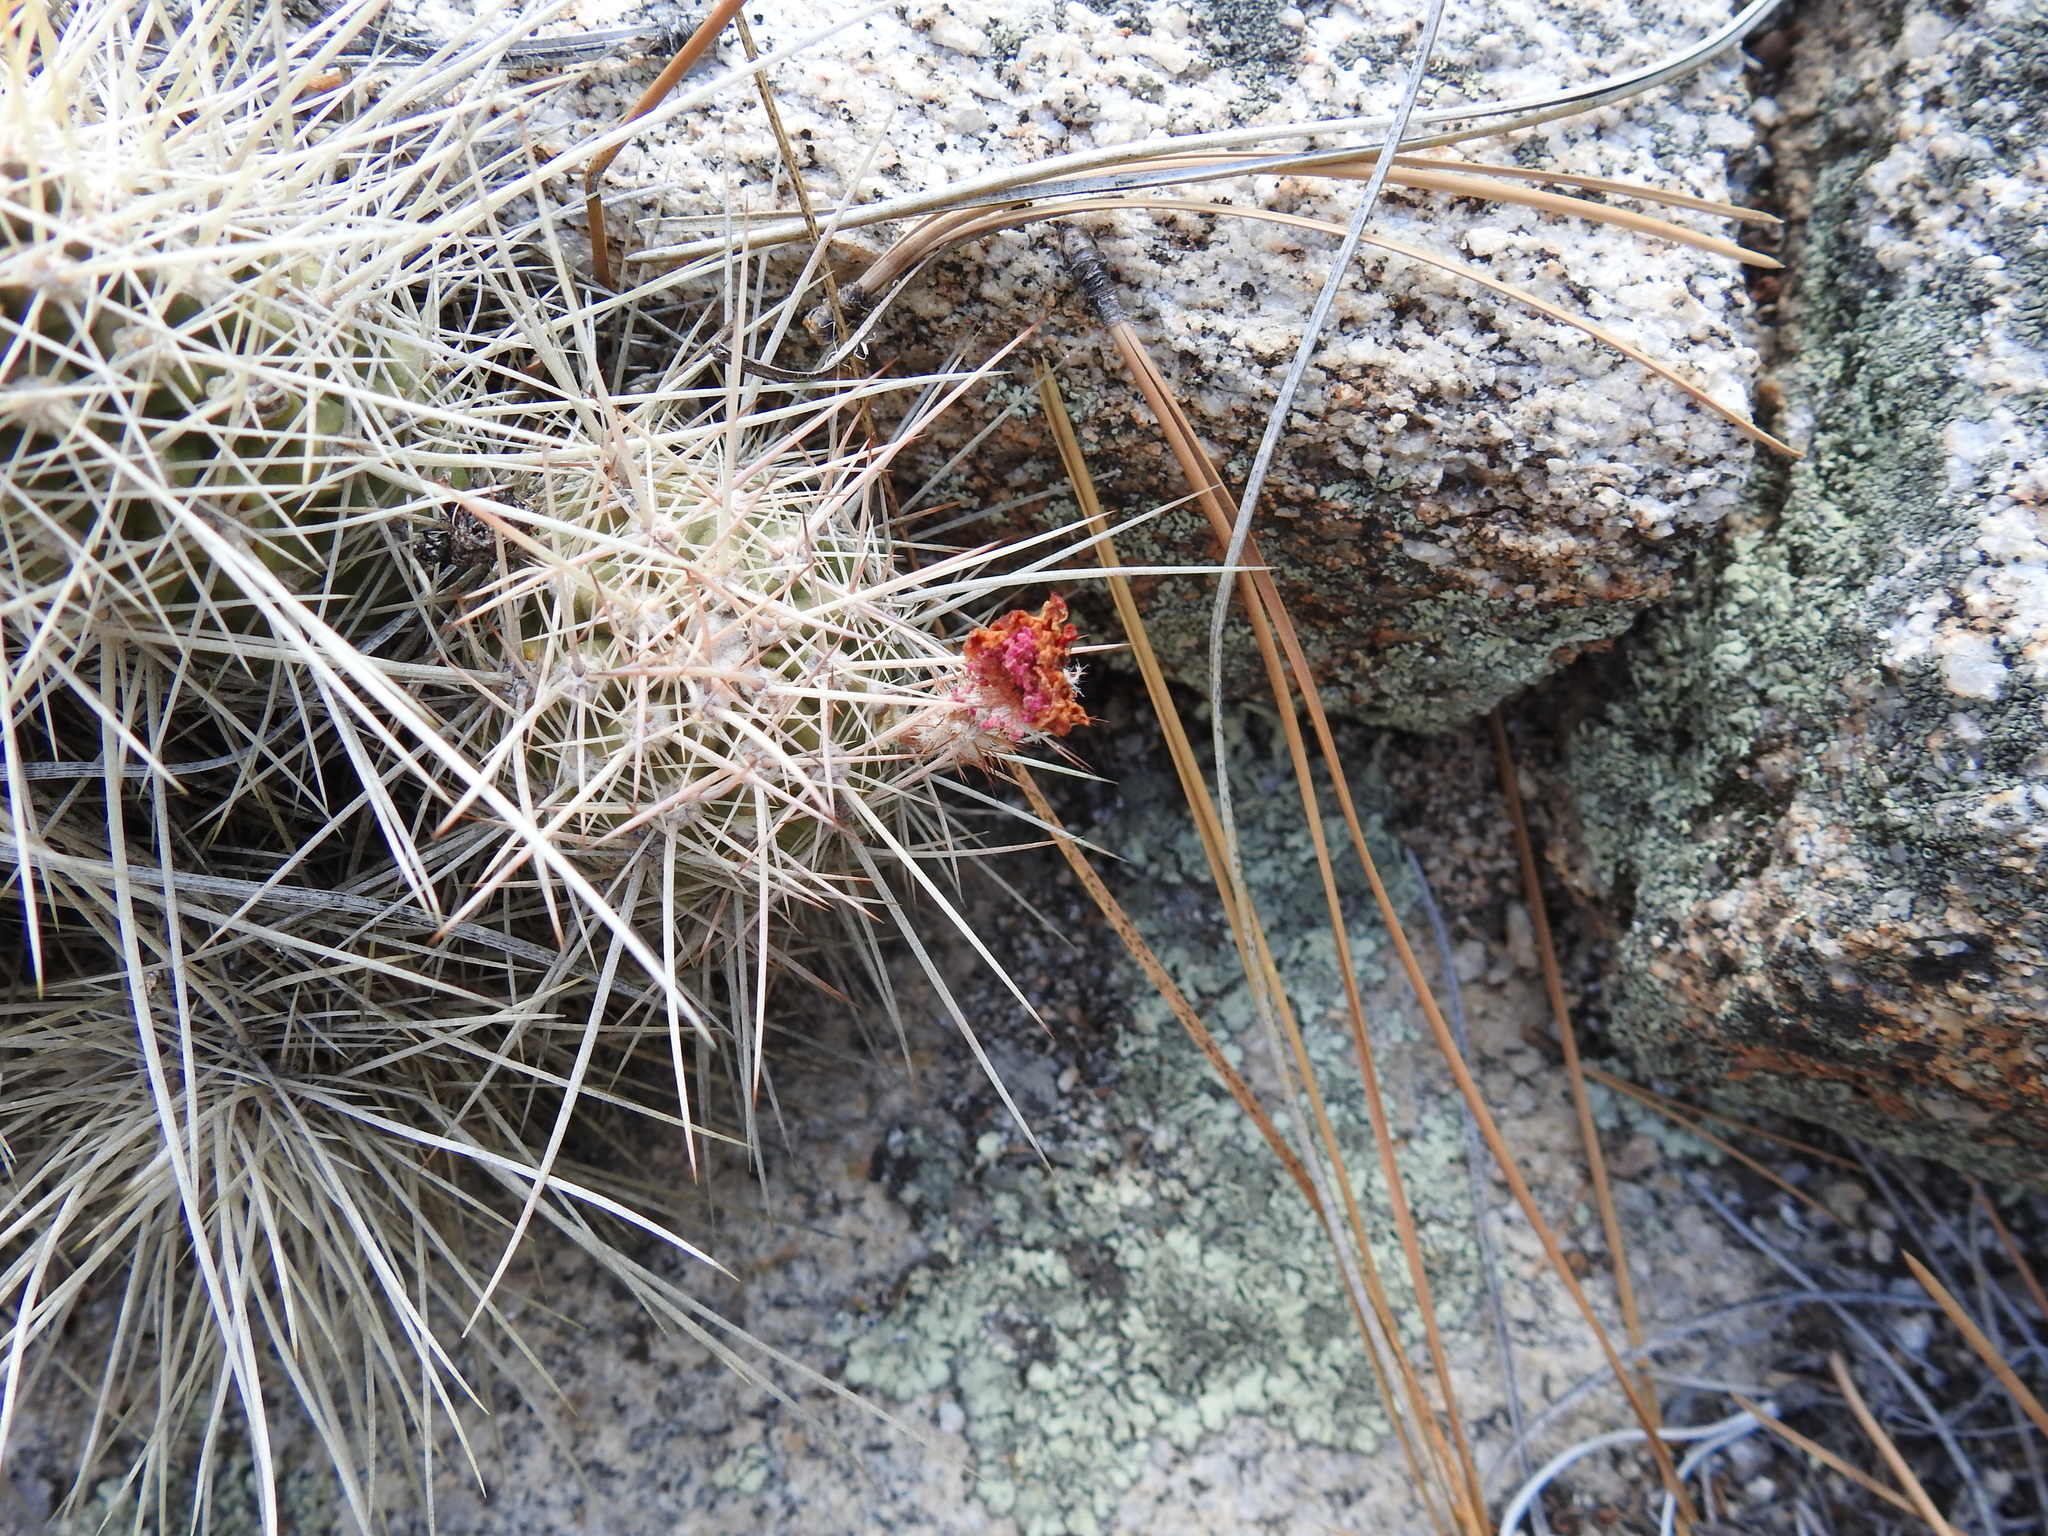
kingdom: Plantae
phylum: Tracheophyta
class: Magnoliopsida
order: Caryophyllales
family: Cactaceae
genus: Echinocereus
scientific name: Echinocereus pacificus
